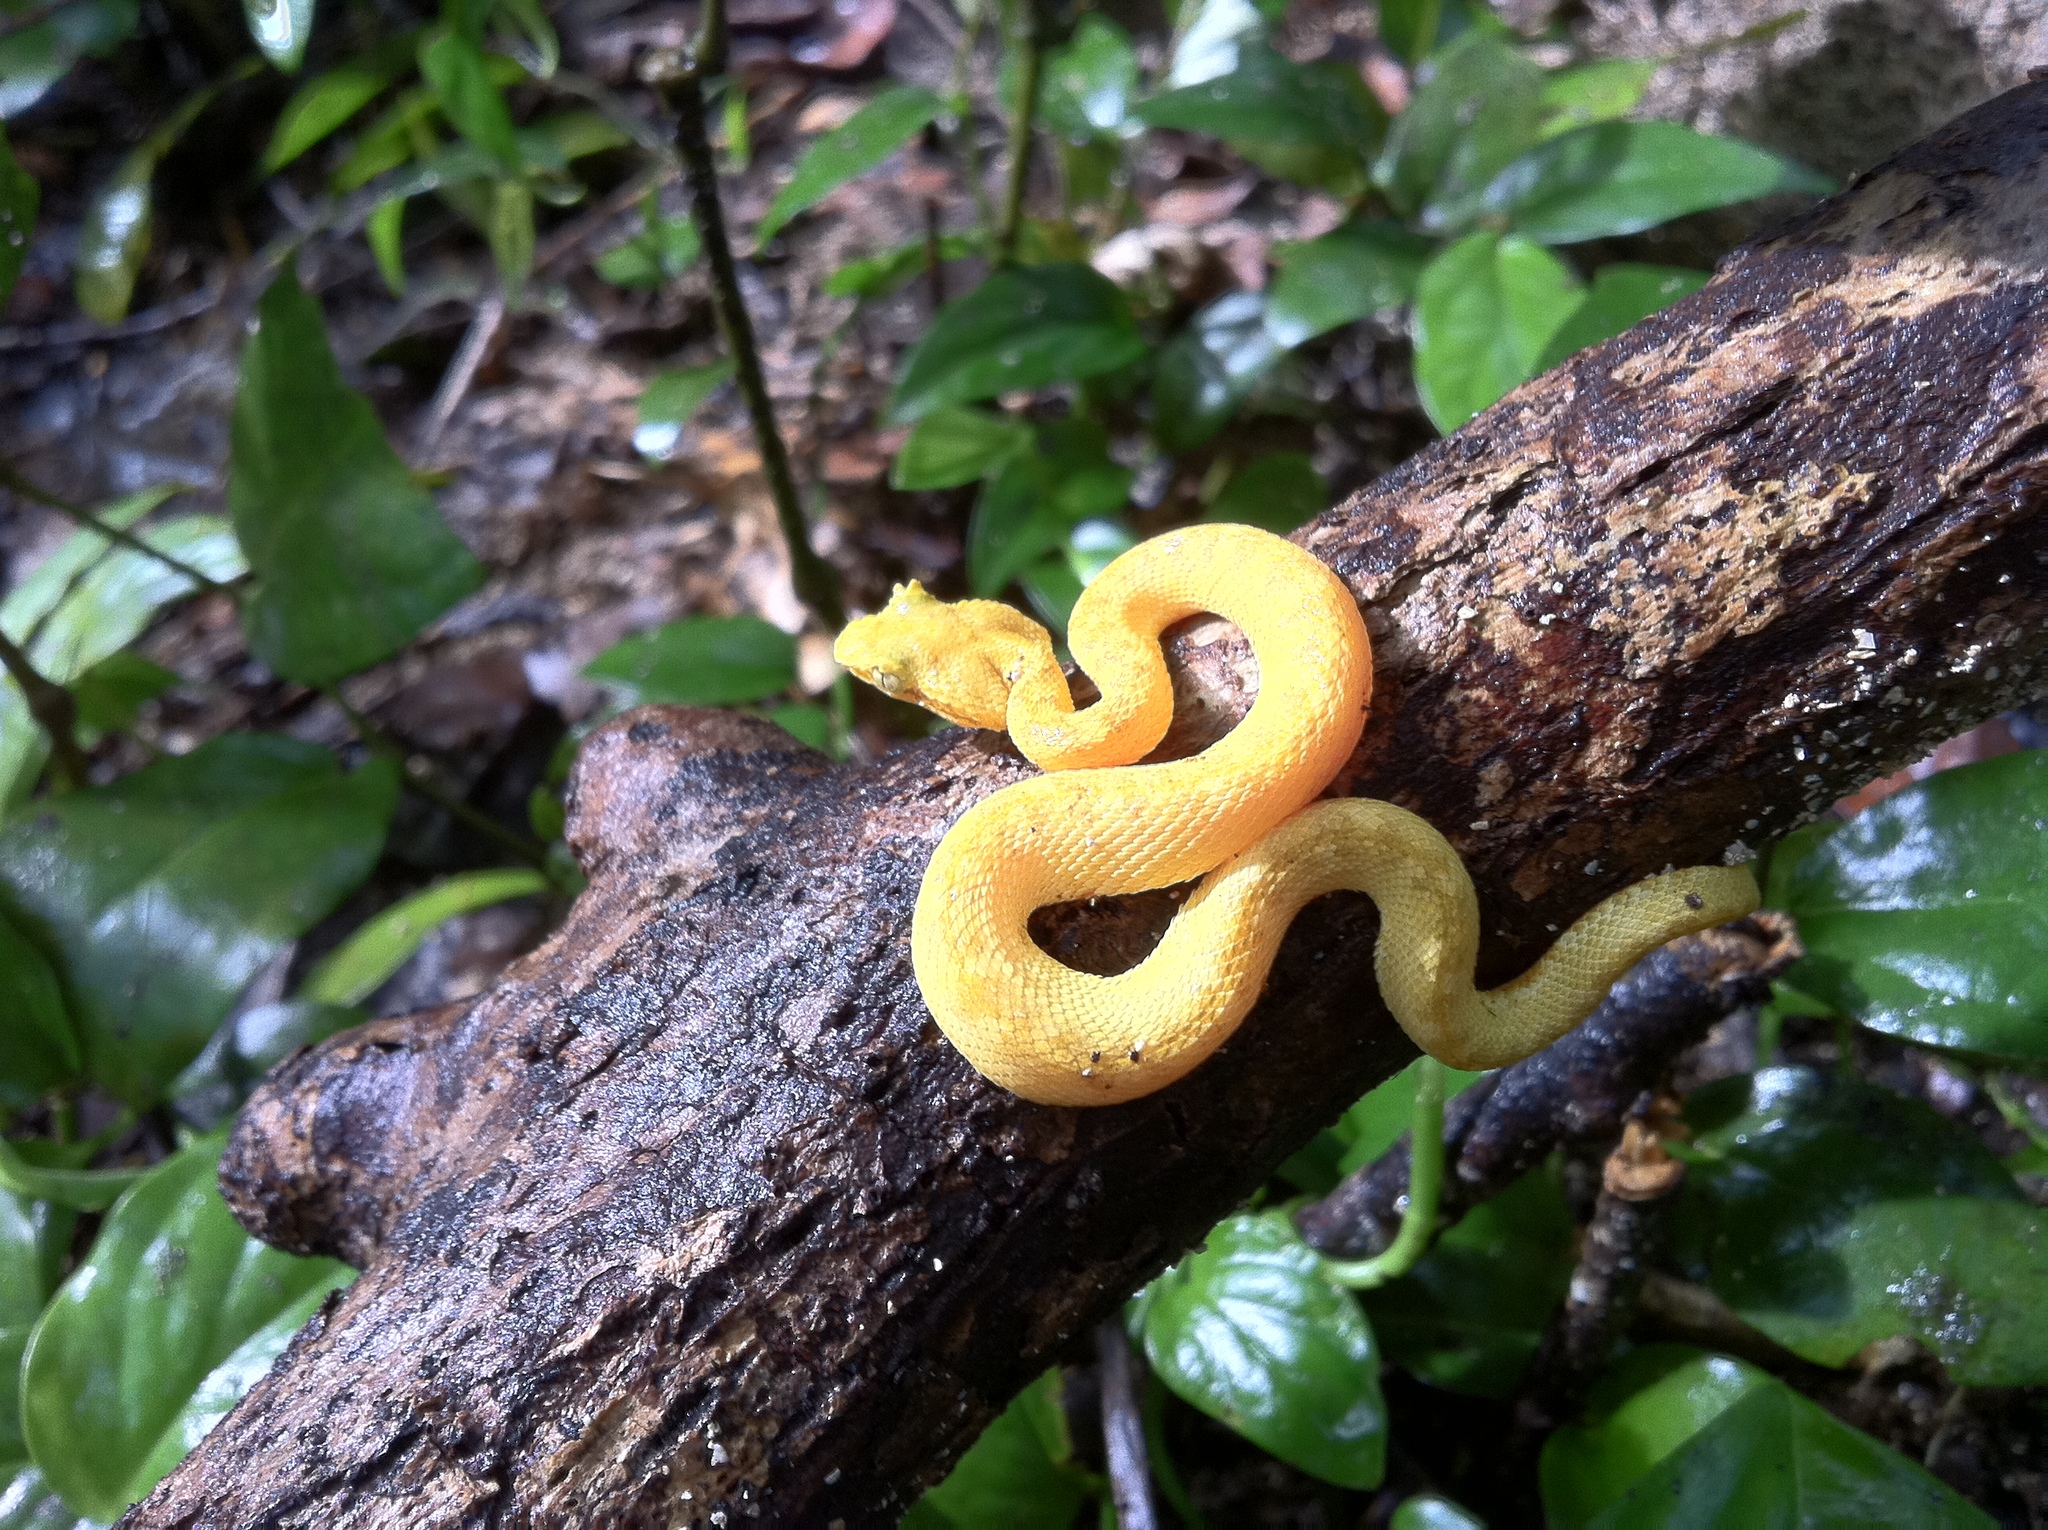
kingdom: Animalia
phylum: Chordata
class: Squamata
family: Viperidae
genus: Bothriechis
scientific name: Bothriechis schlegelii
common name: Eyelash viper
